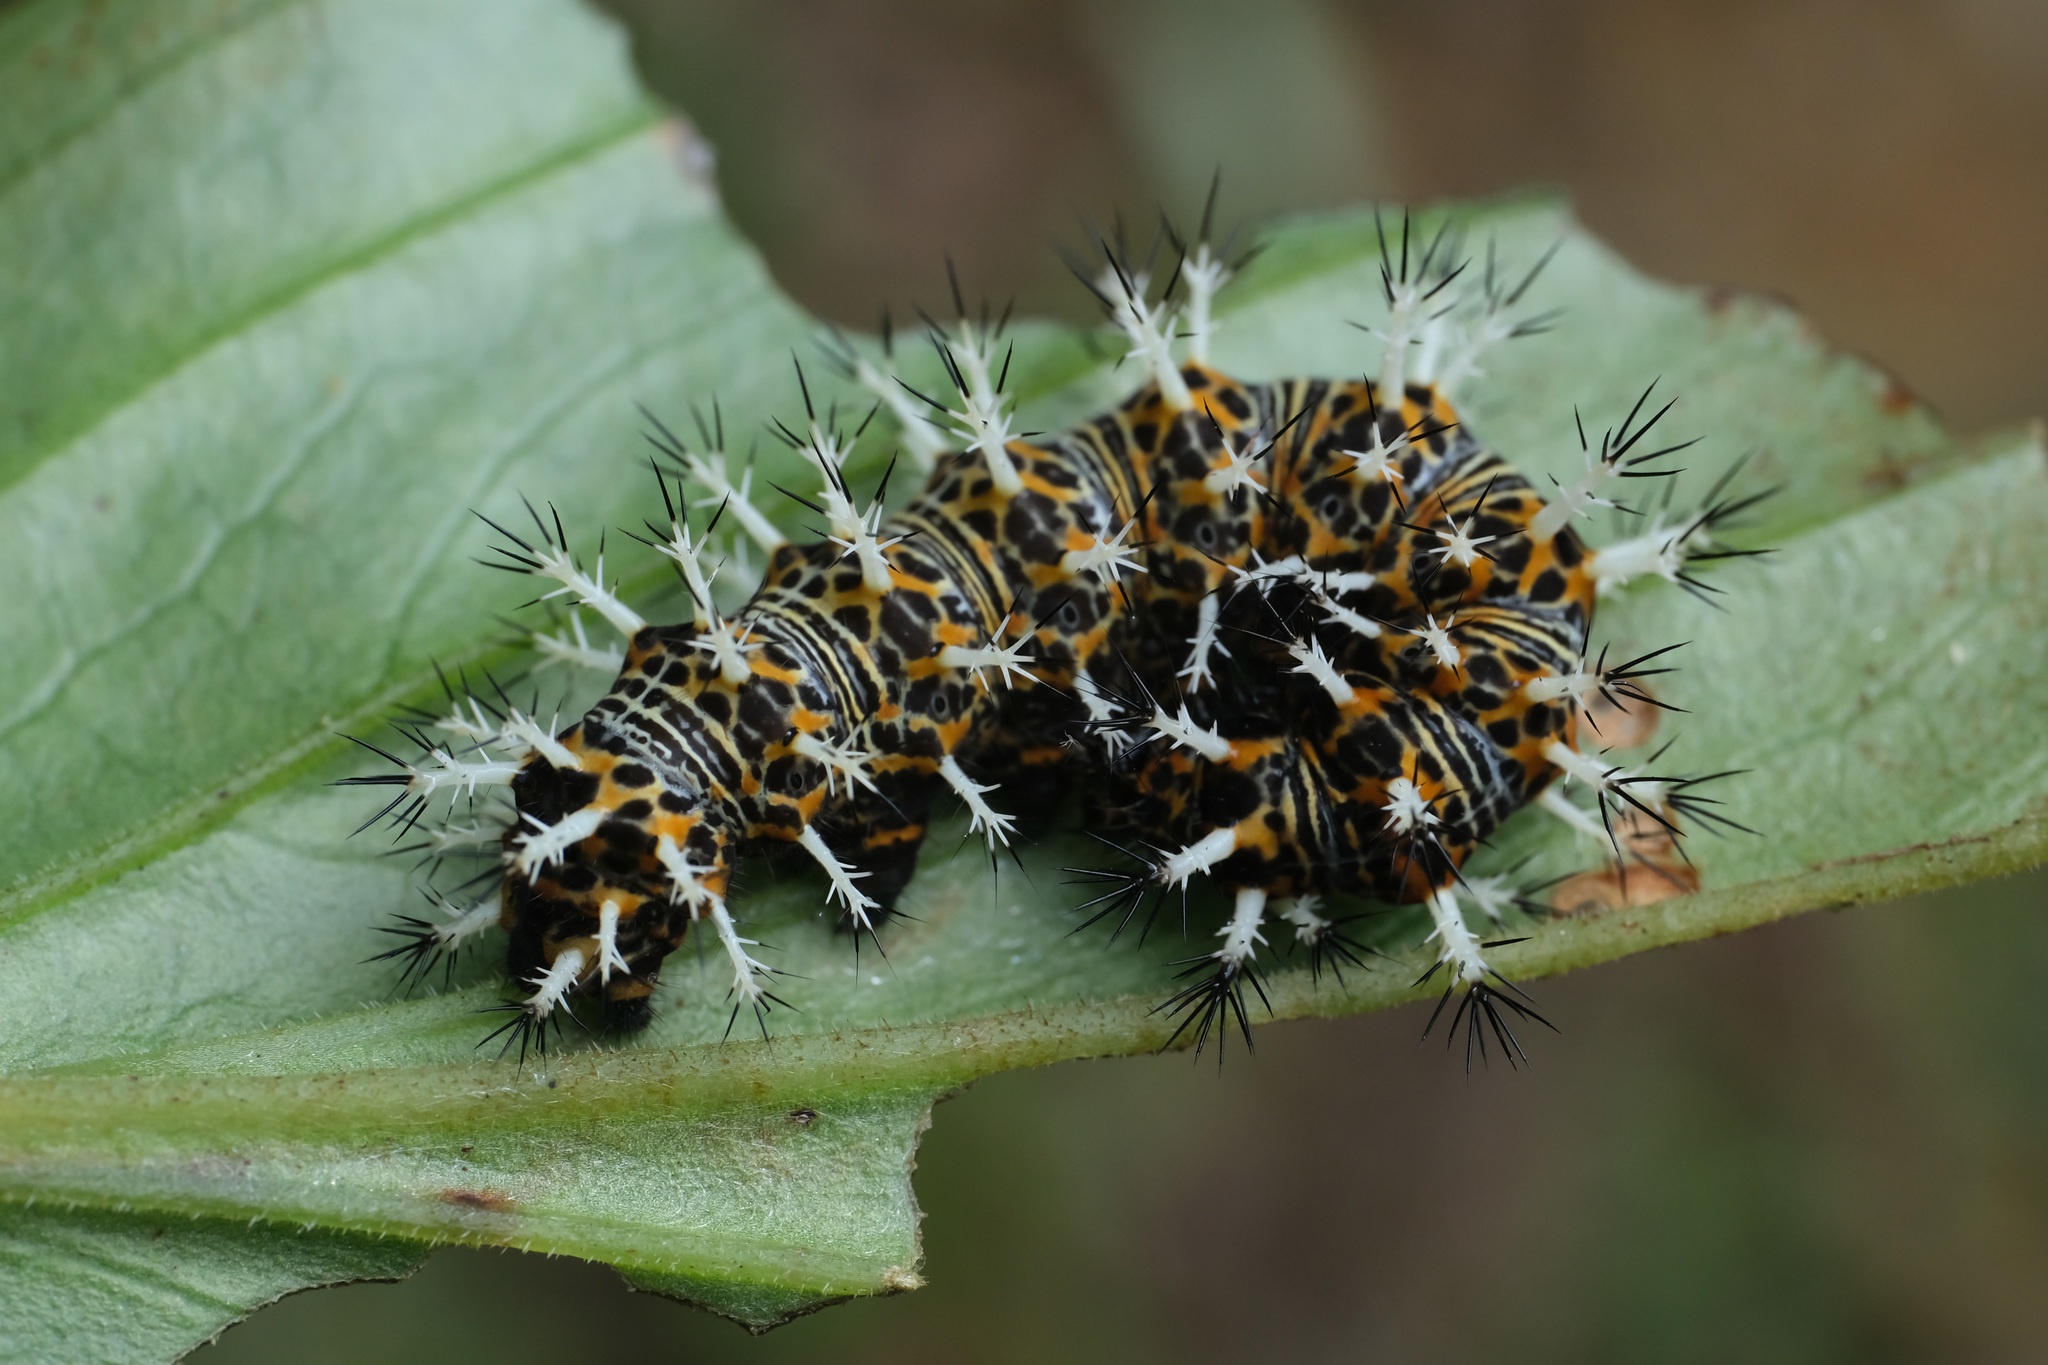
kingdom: Animalia
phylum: Arthropoda
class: Insecta
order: Lepidoptera
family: Nymphalidae
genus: Vanessa
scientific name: Vanessa Kaniska canace
